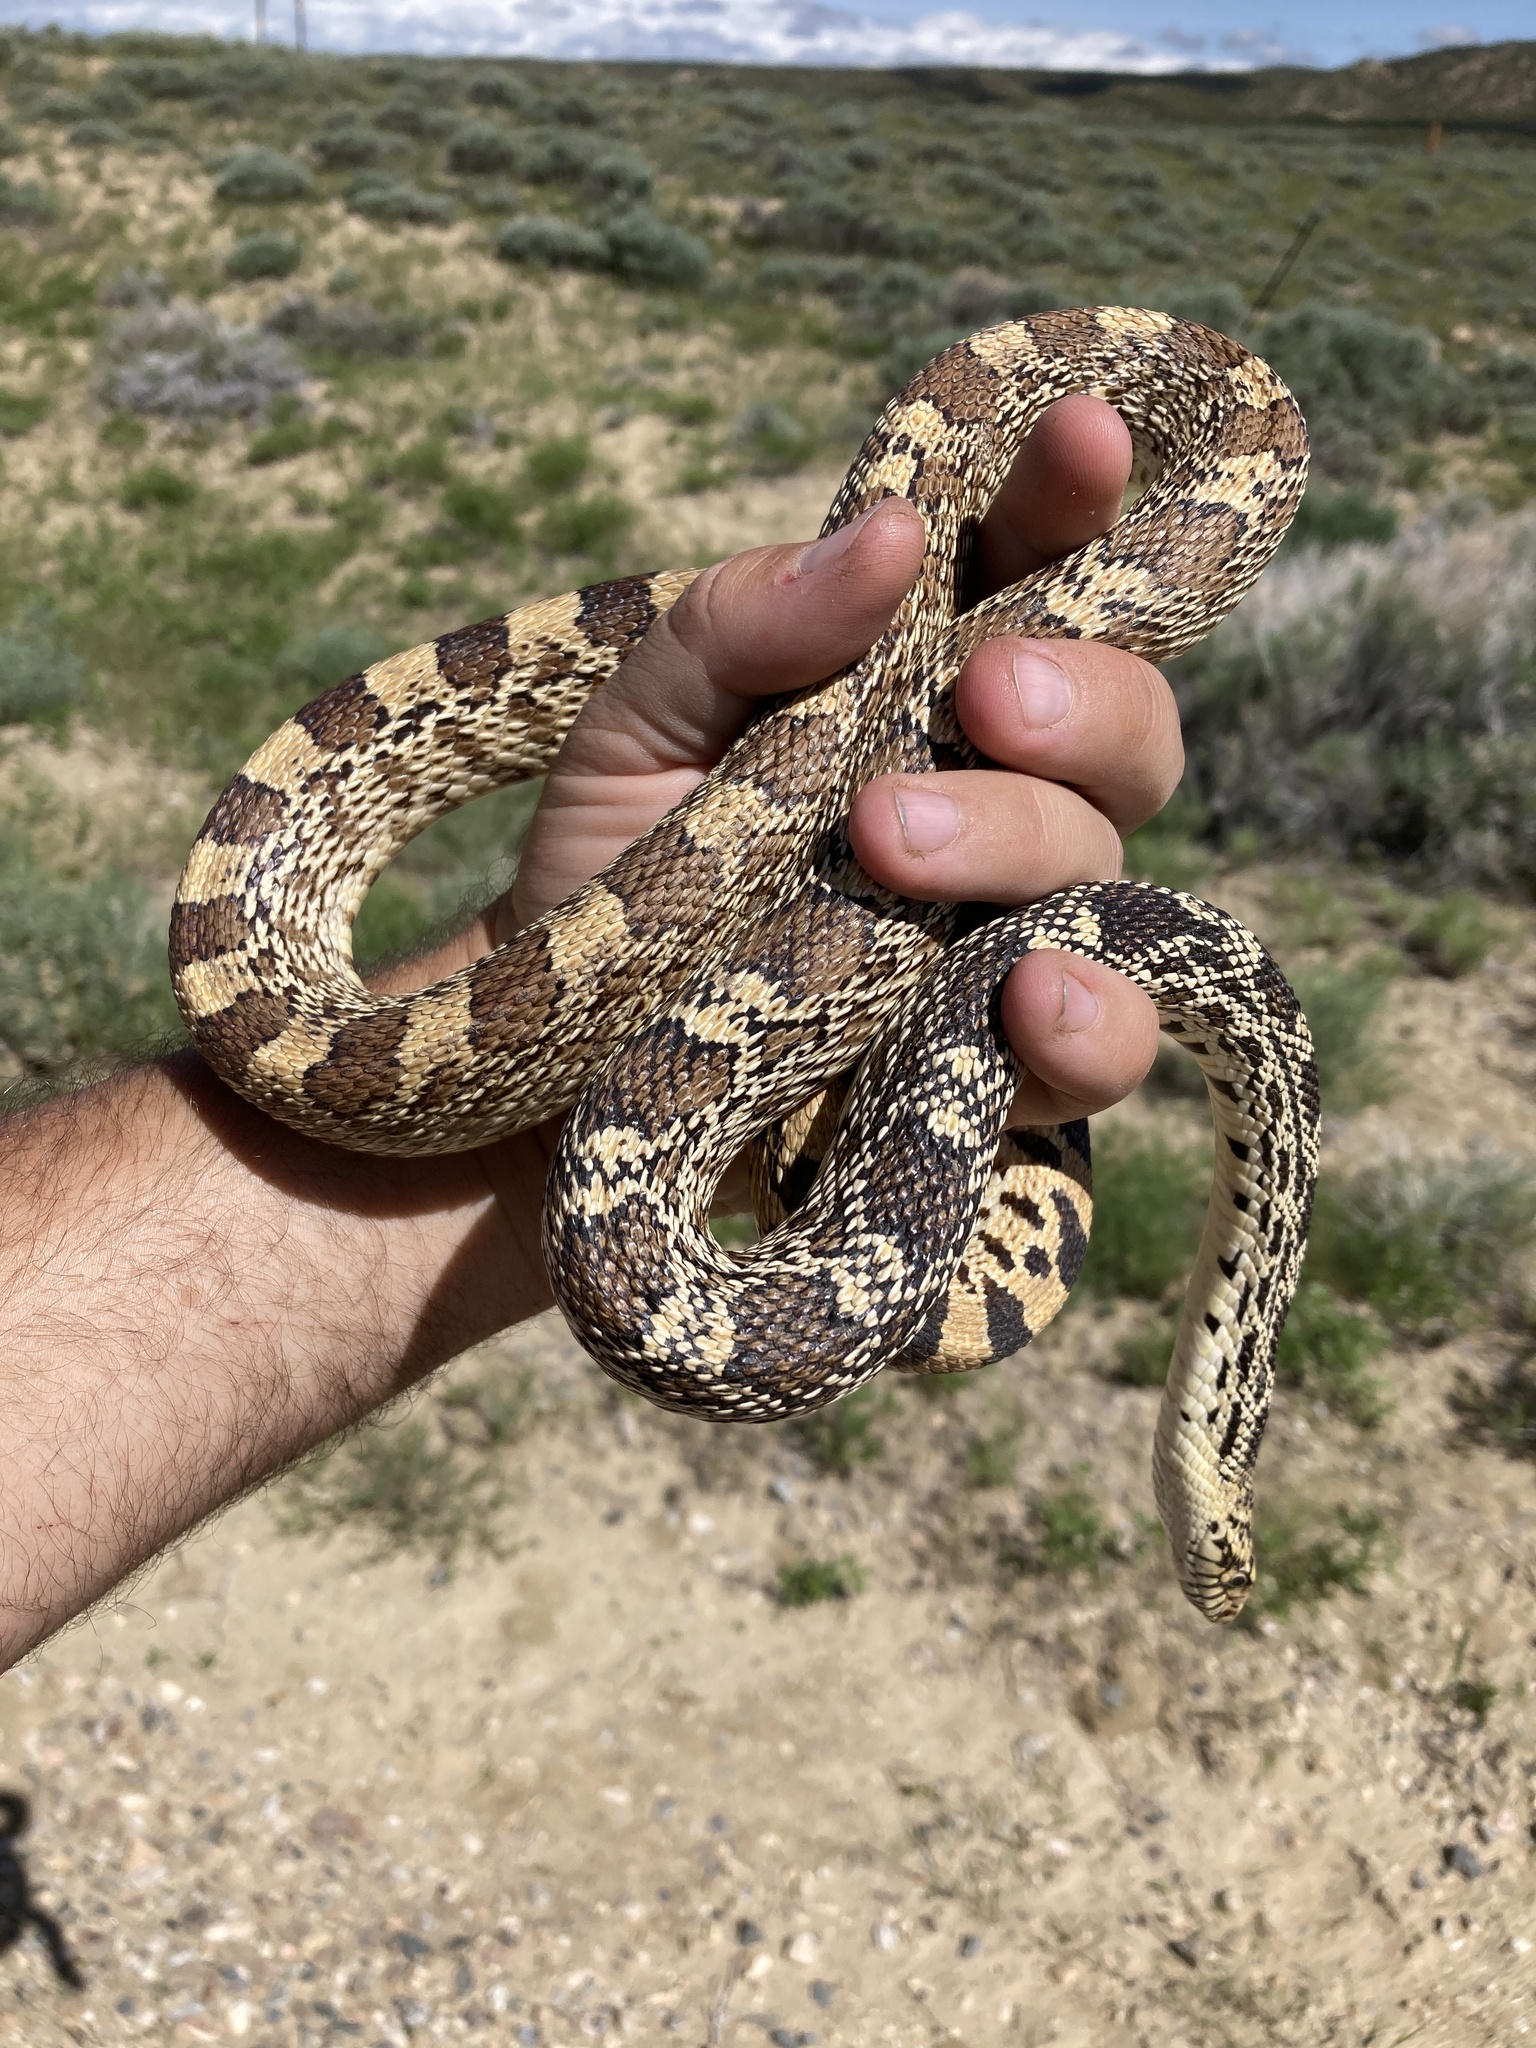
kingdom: Animalia
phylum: Chordata
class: Squamata
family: Colubridae
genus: Pituophis
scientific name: Pituophis catenifer
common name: Gopher snake
